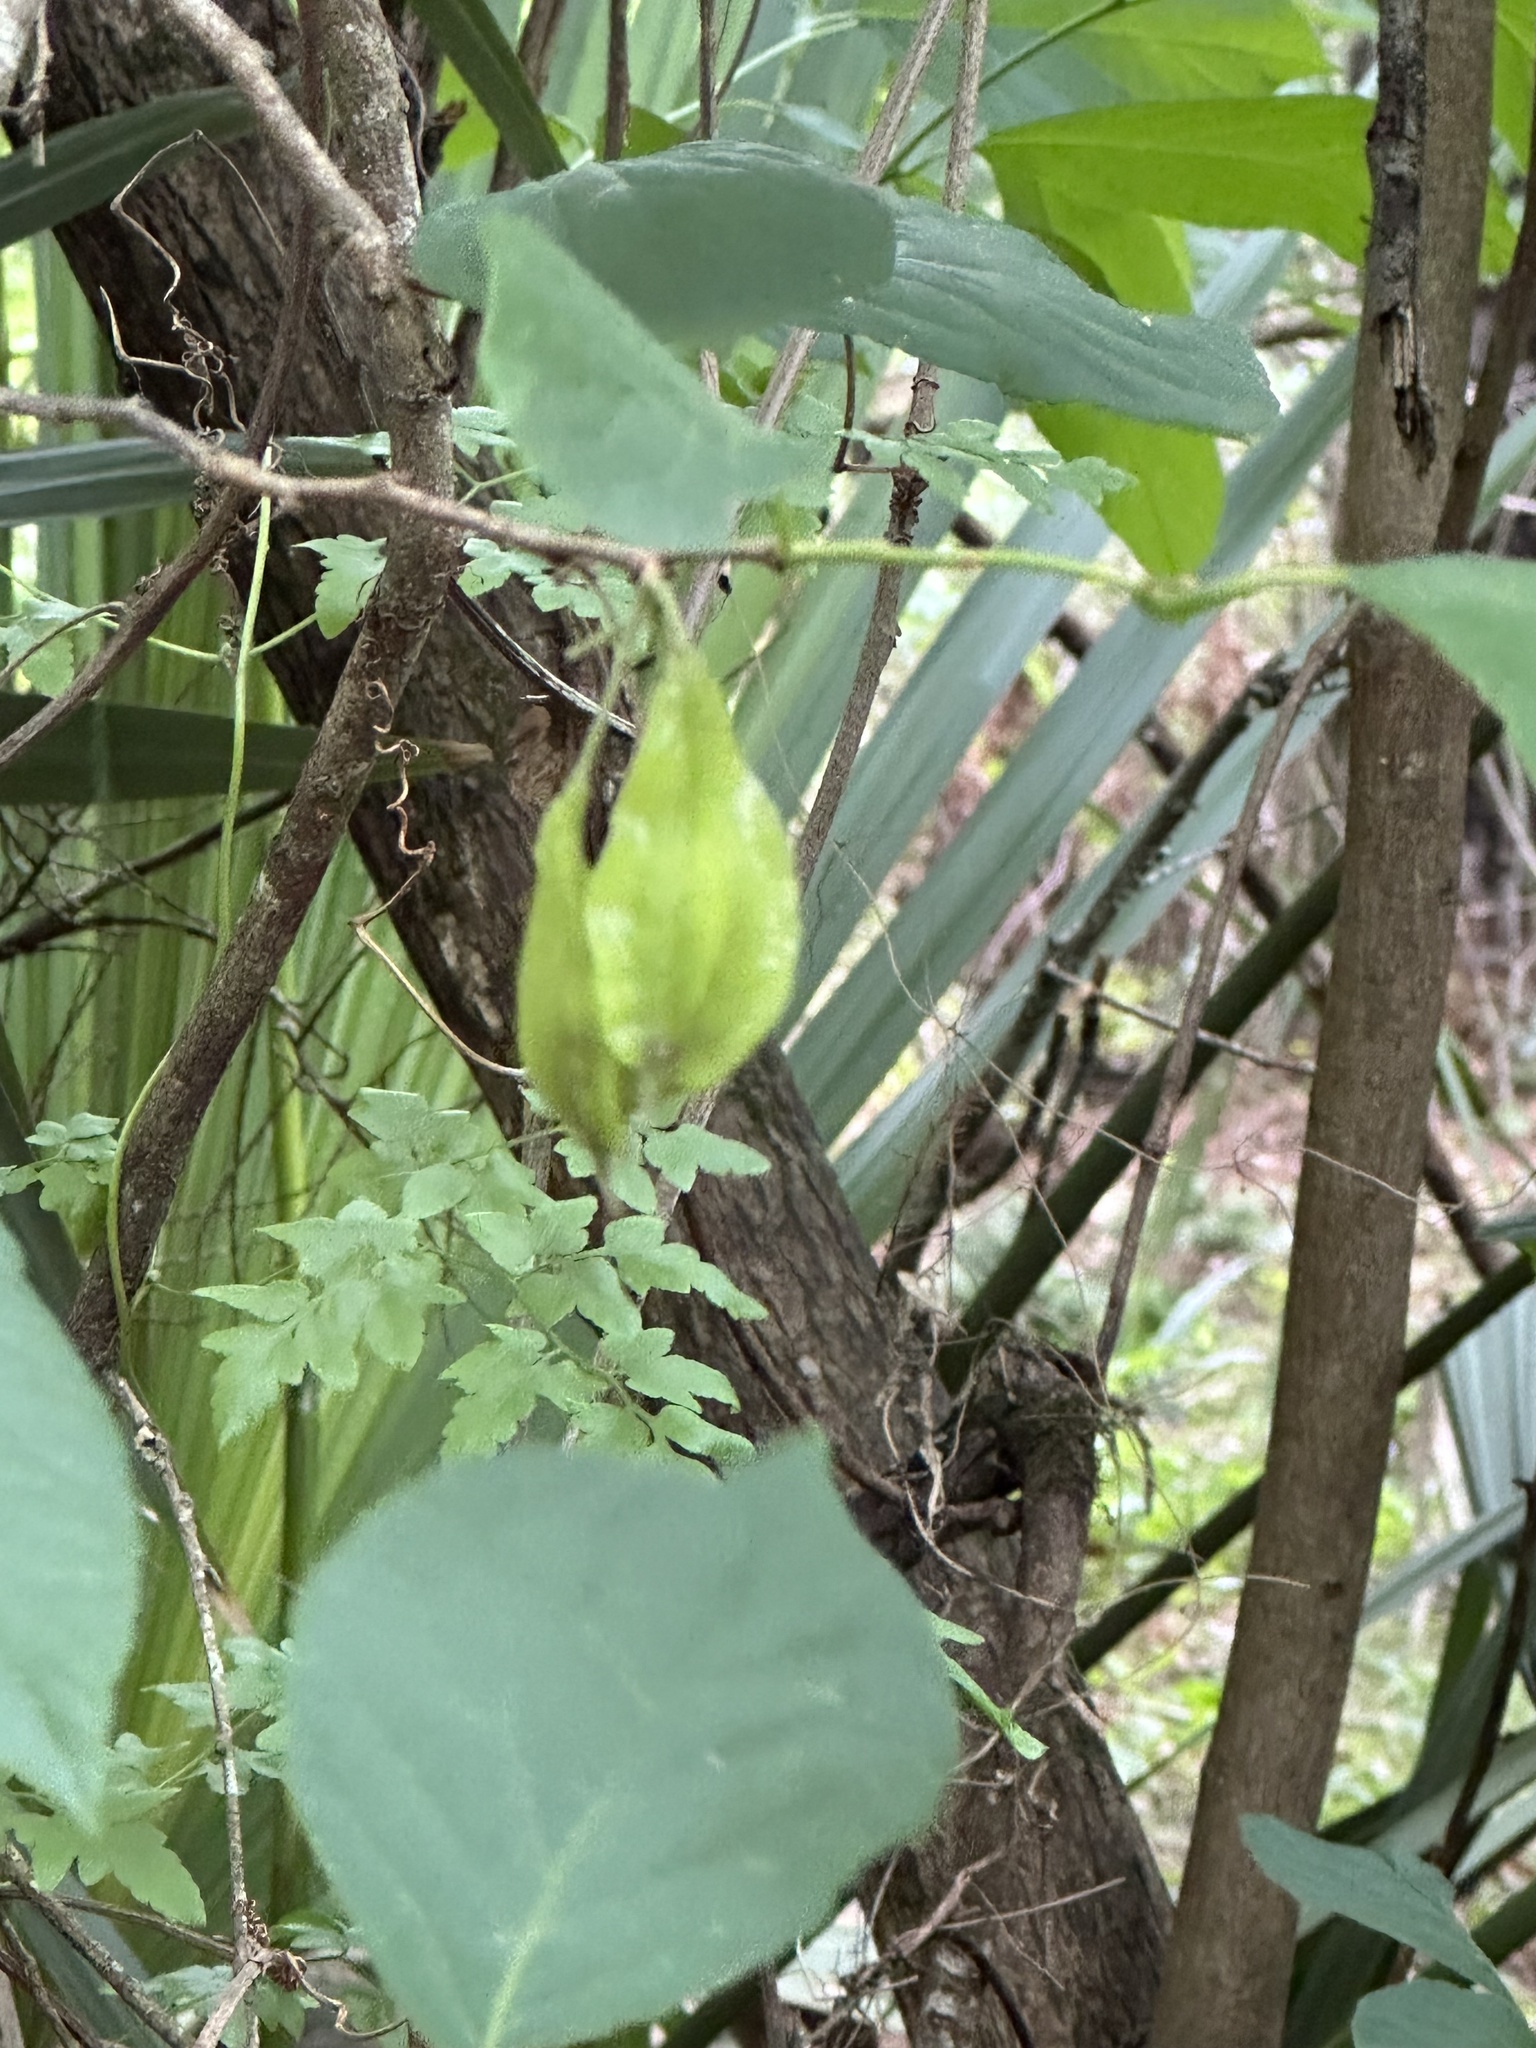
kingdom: Plantae
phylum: Tracheophyta
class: Magnoliopsida
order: Ericales
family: Styracaceae
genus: Halesia
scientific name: Halesia diptera
